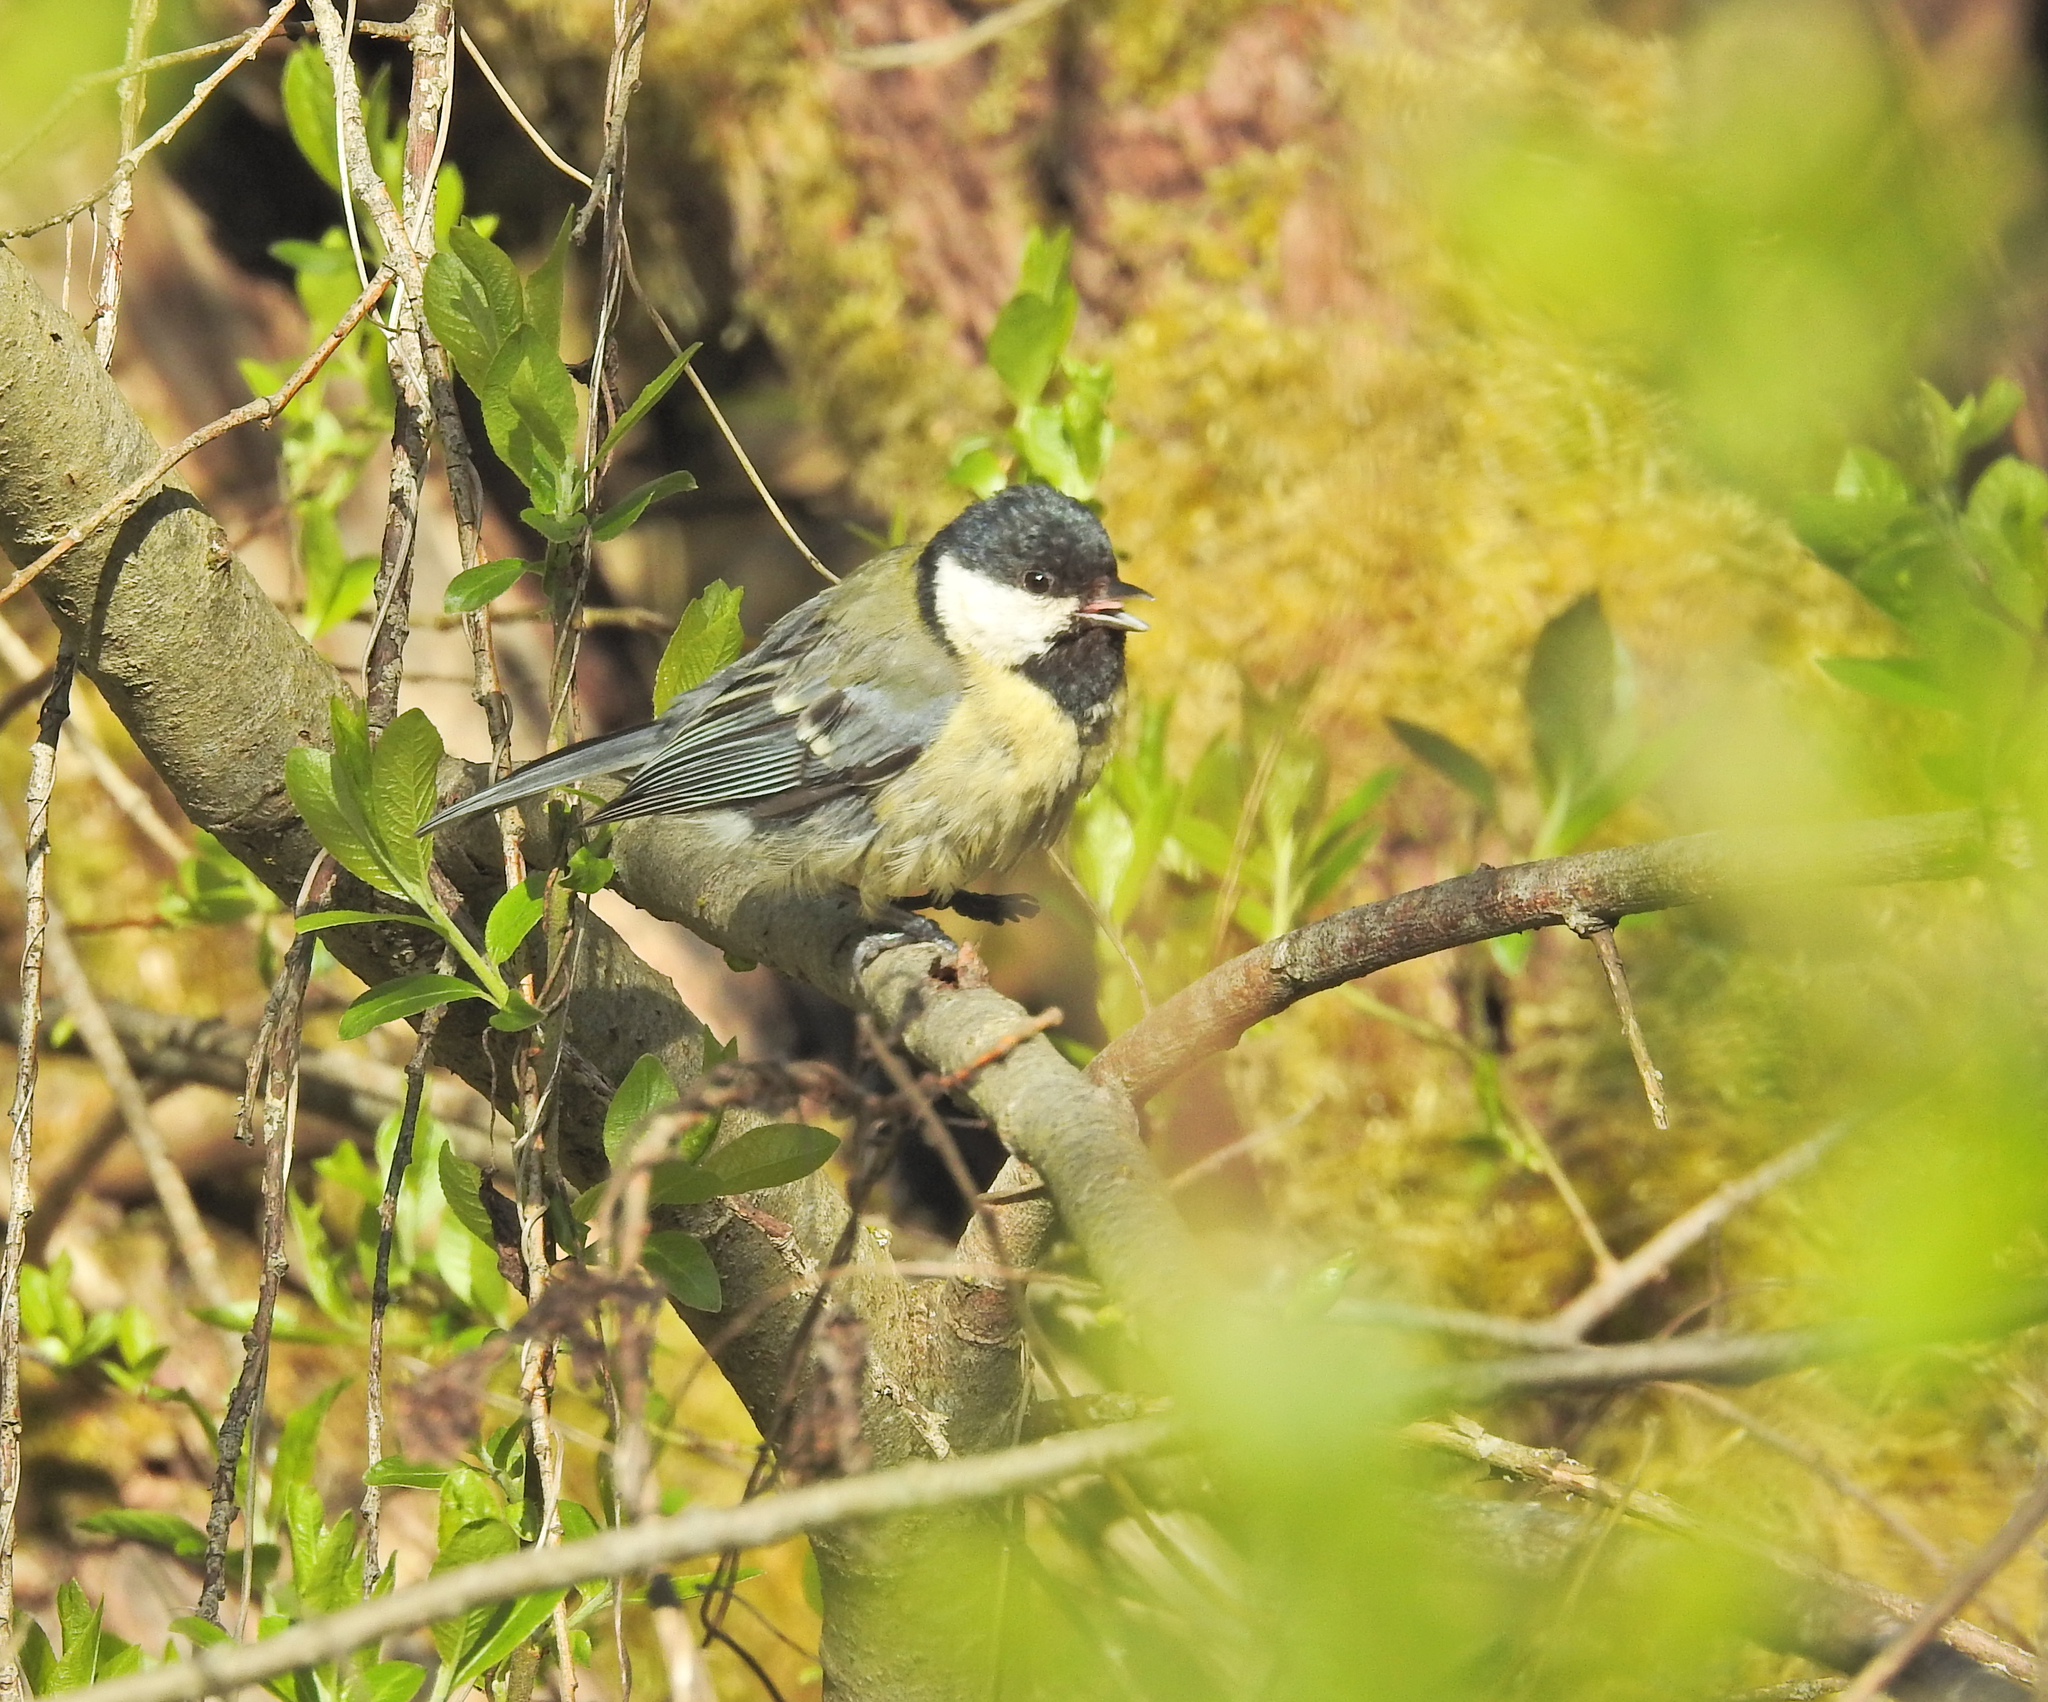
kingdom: Animalia
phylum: Chordata
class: Aves
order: Passeriformes
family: Paridae
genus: Parus
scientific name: Parus major
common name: Great tit
